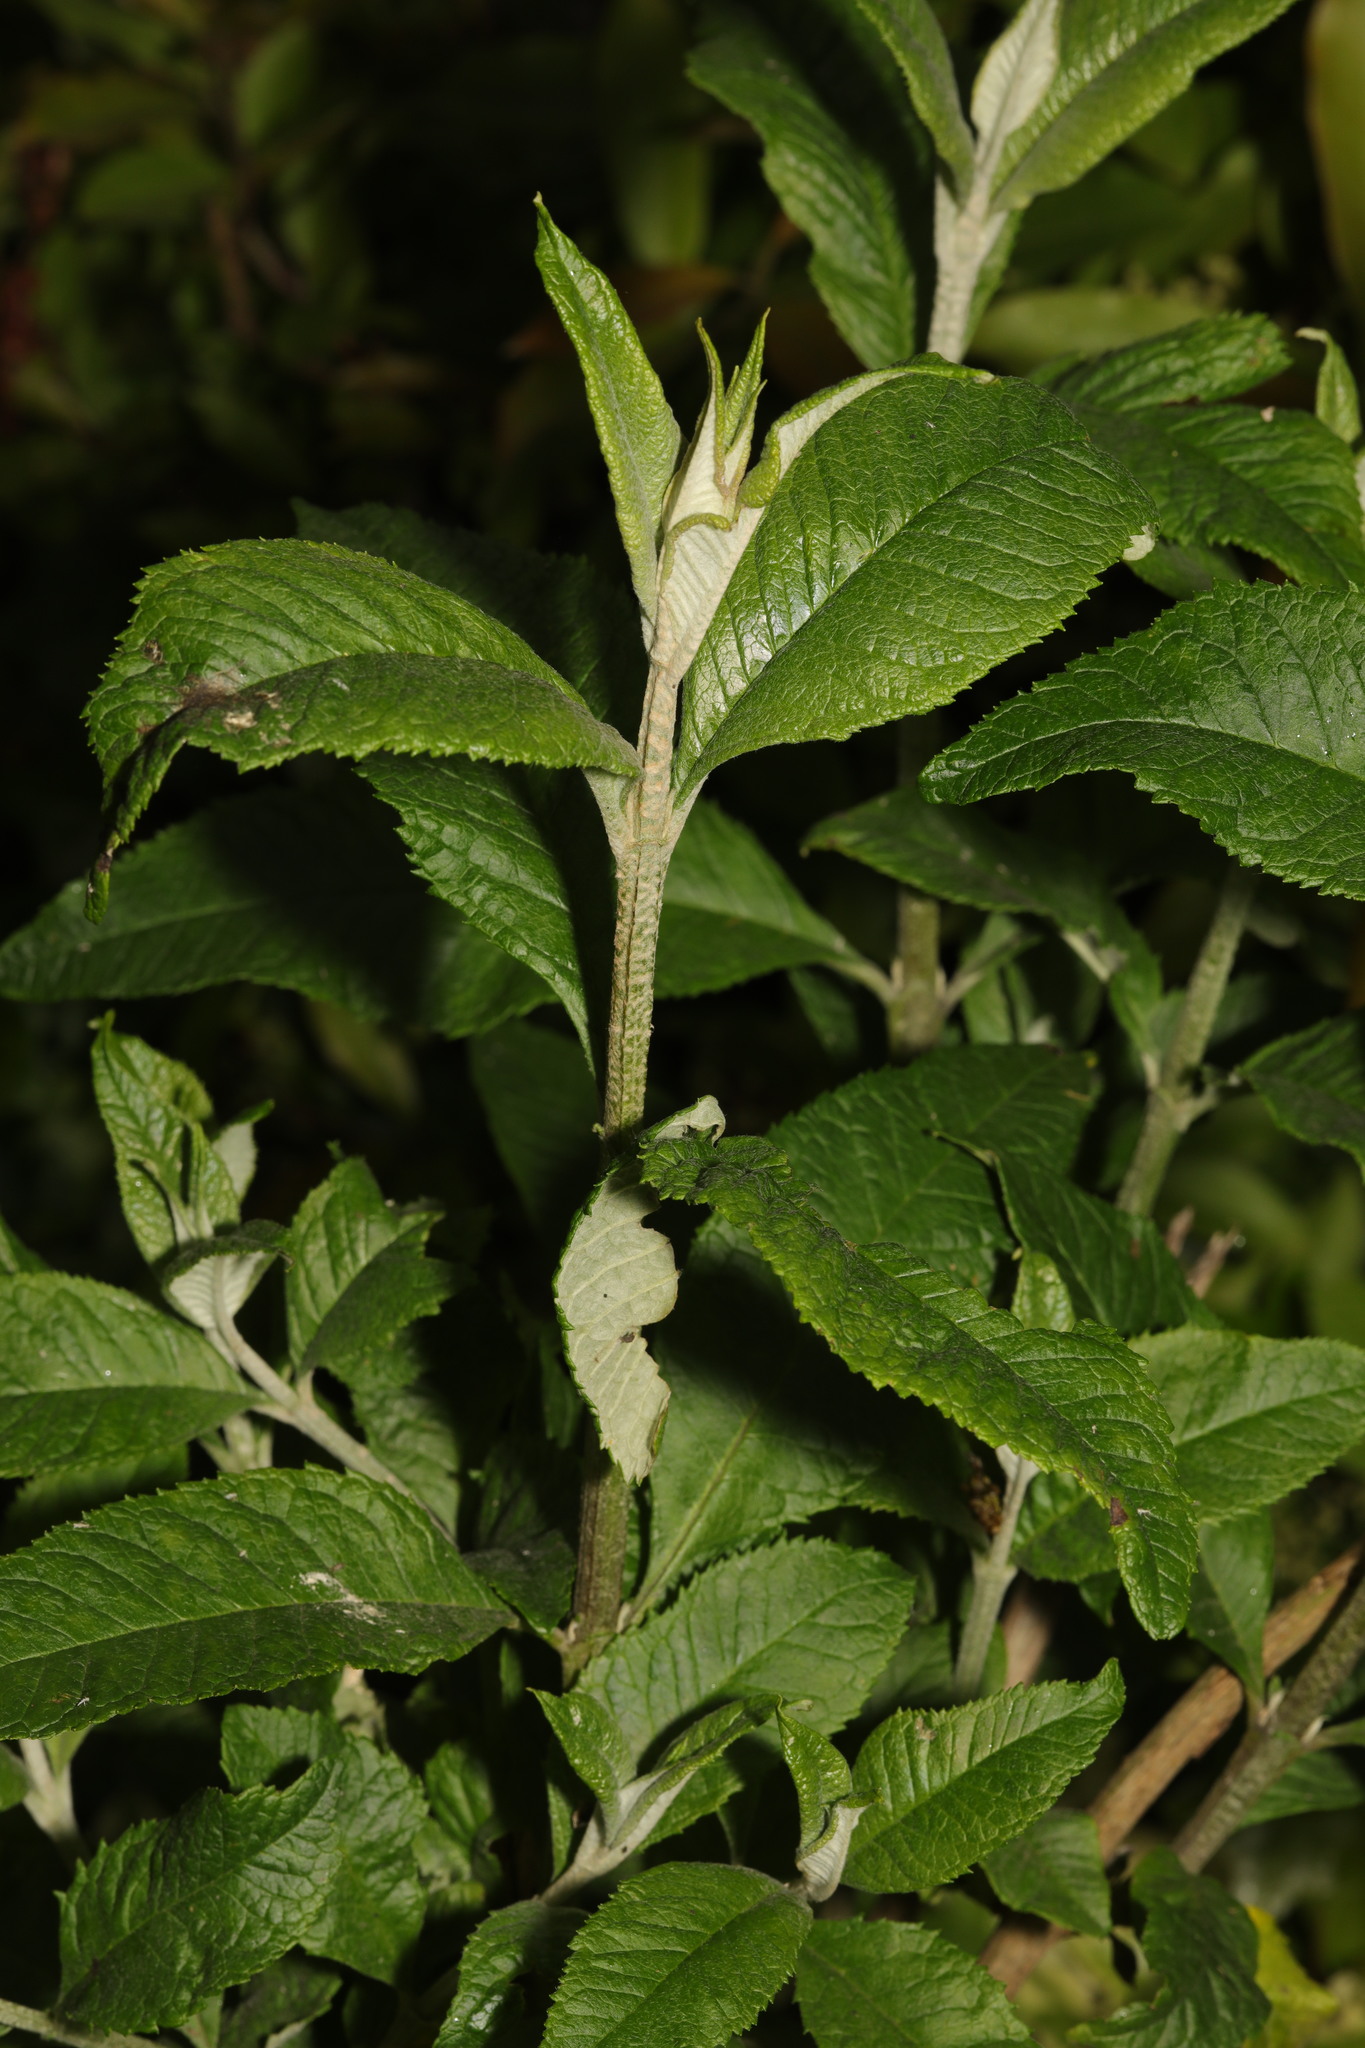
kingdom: Plantae
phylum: Tracheophyta
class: Magnoliopsida
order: Lamiales
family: Scrophulariaceae
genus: Buddleja
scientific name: Buddleja davidii
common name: Butterfly-bush
